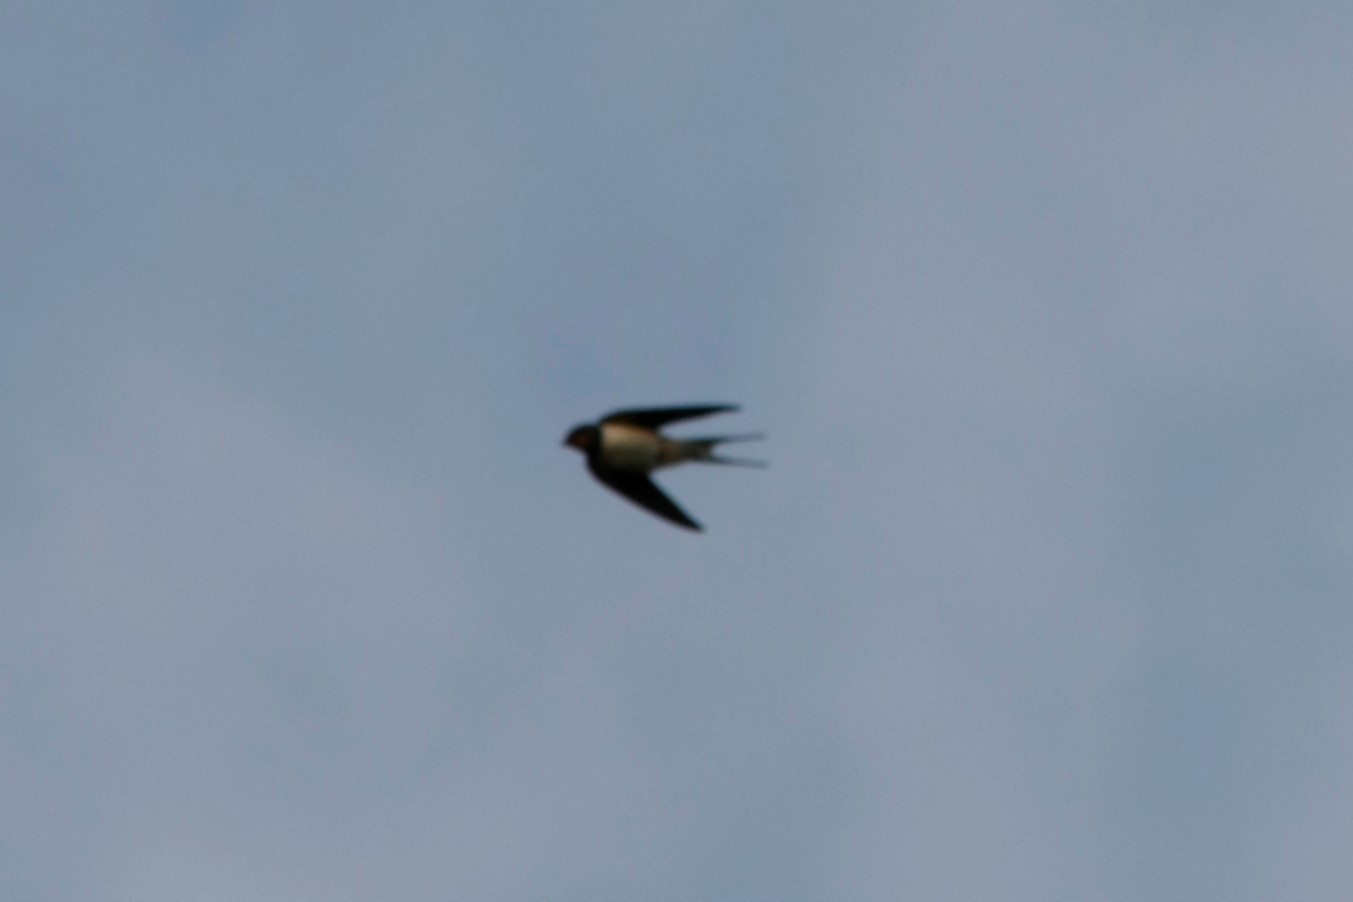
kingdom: Animalia
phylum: Chordata
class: Aves
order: Passeriformes
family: Hirundinidae
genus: Hirundo
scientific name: Hirundo rustica
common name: Barn swallow
